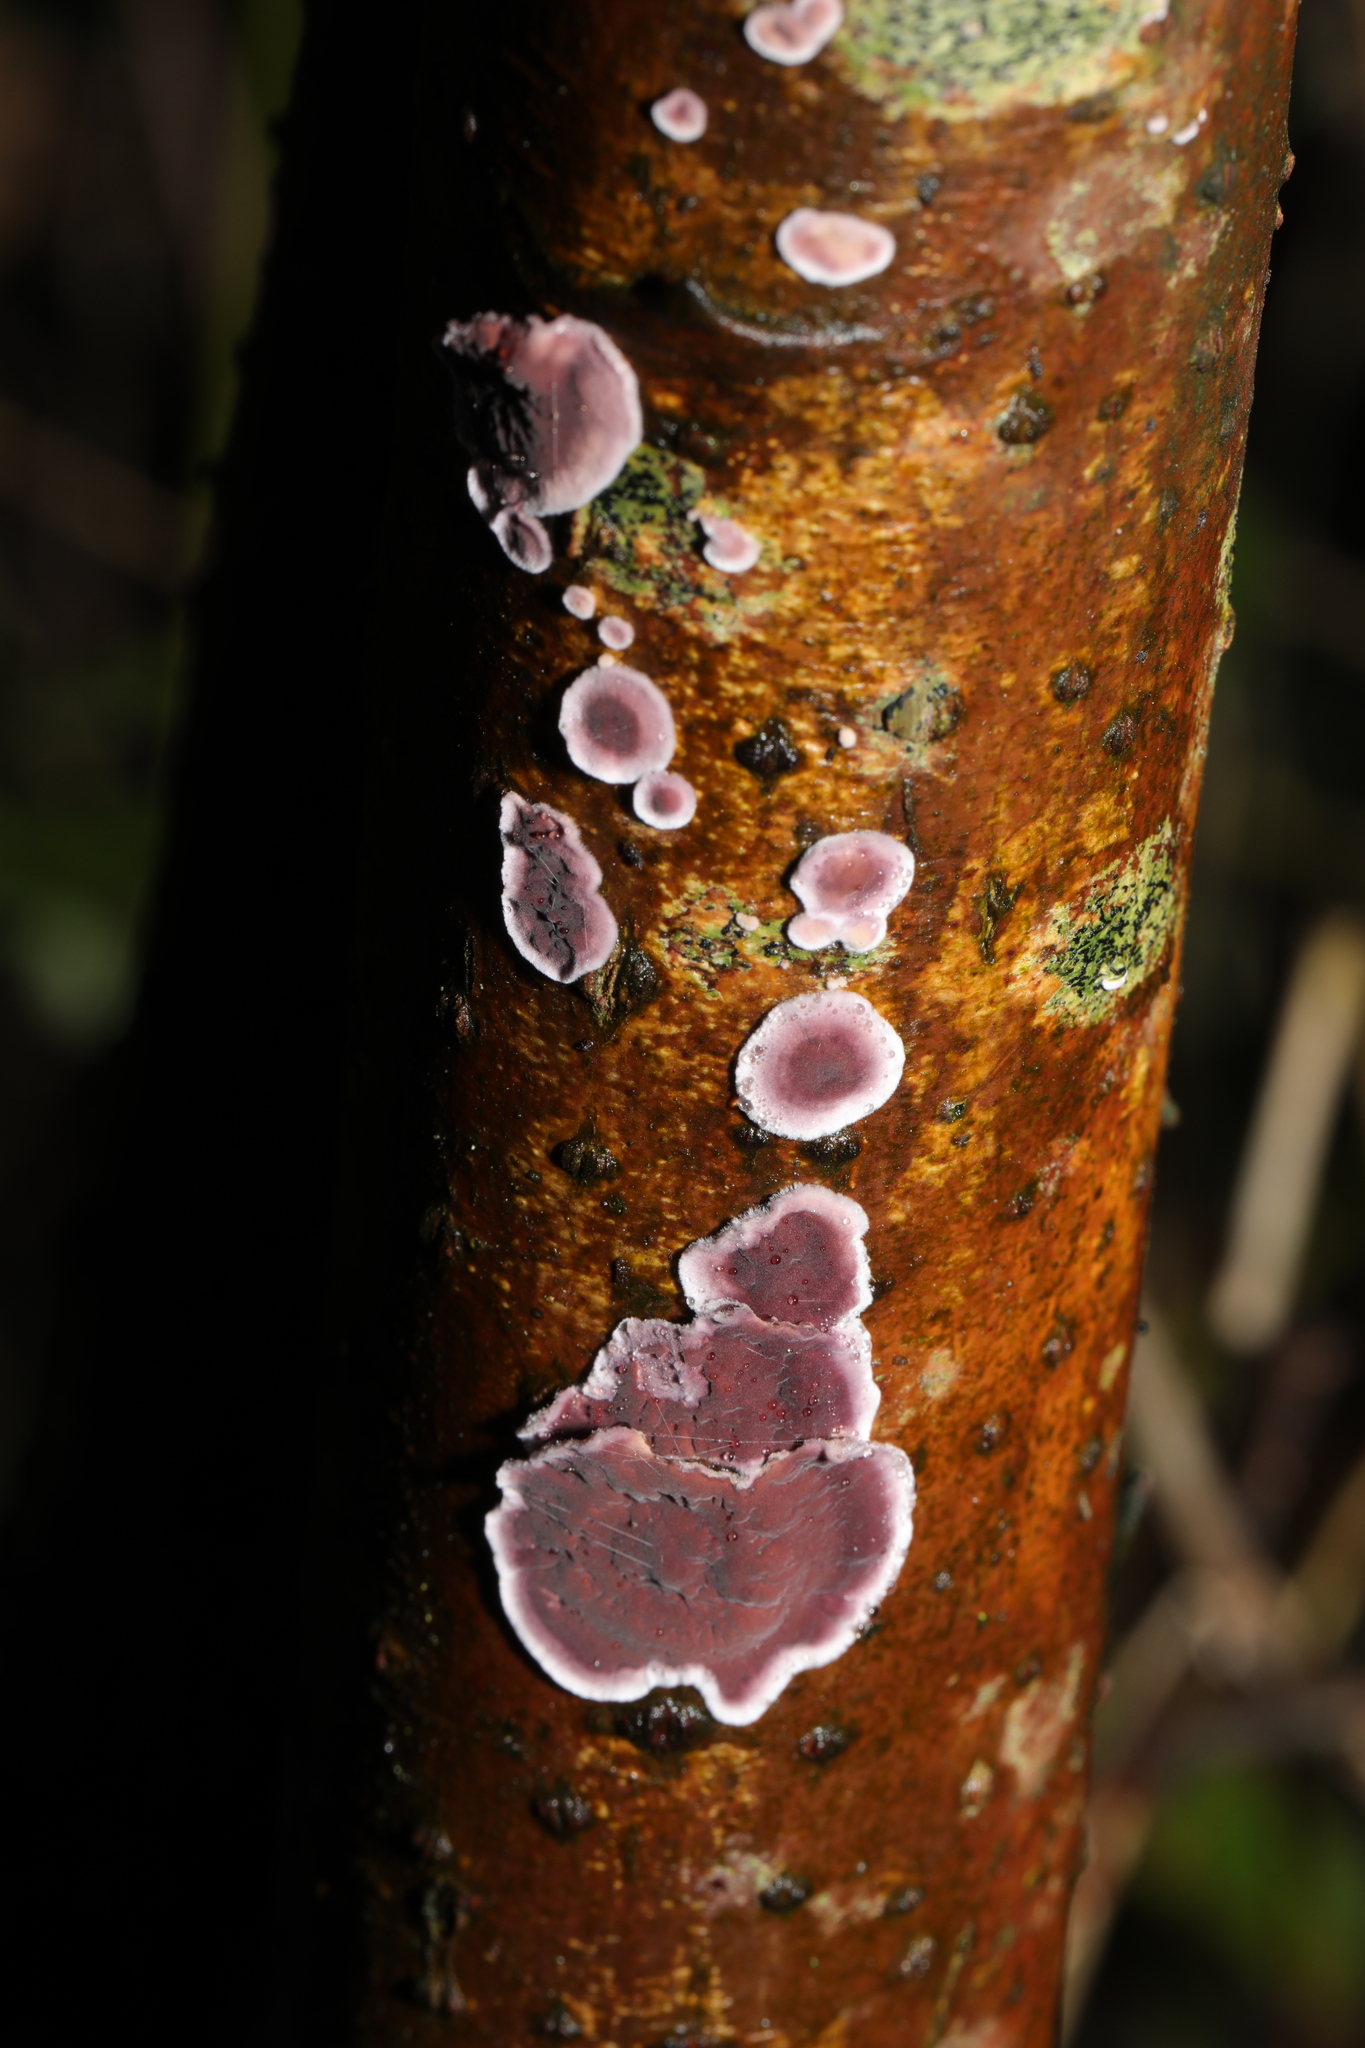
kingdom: Fungi
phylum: Basidiomycota
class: Agaricomycetes
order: Agaricales
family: Cyphellaceae
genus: Chondrostereum
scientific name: Chondrostereum purpureum
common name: Silver leaf disease
